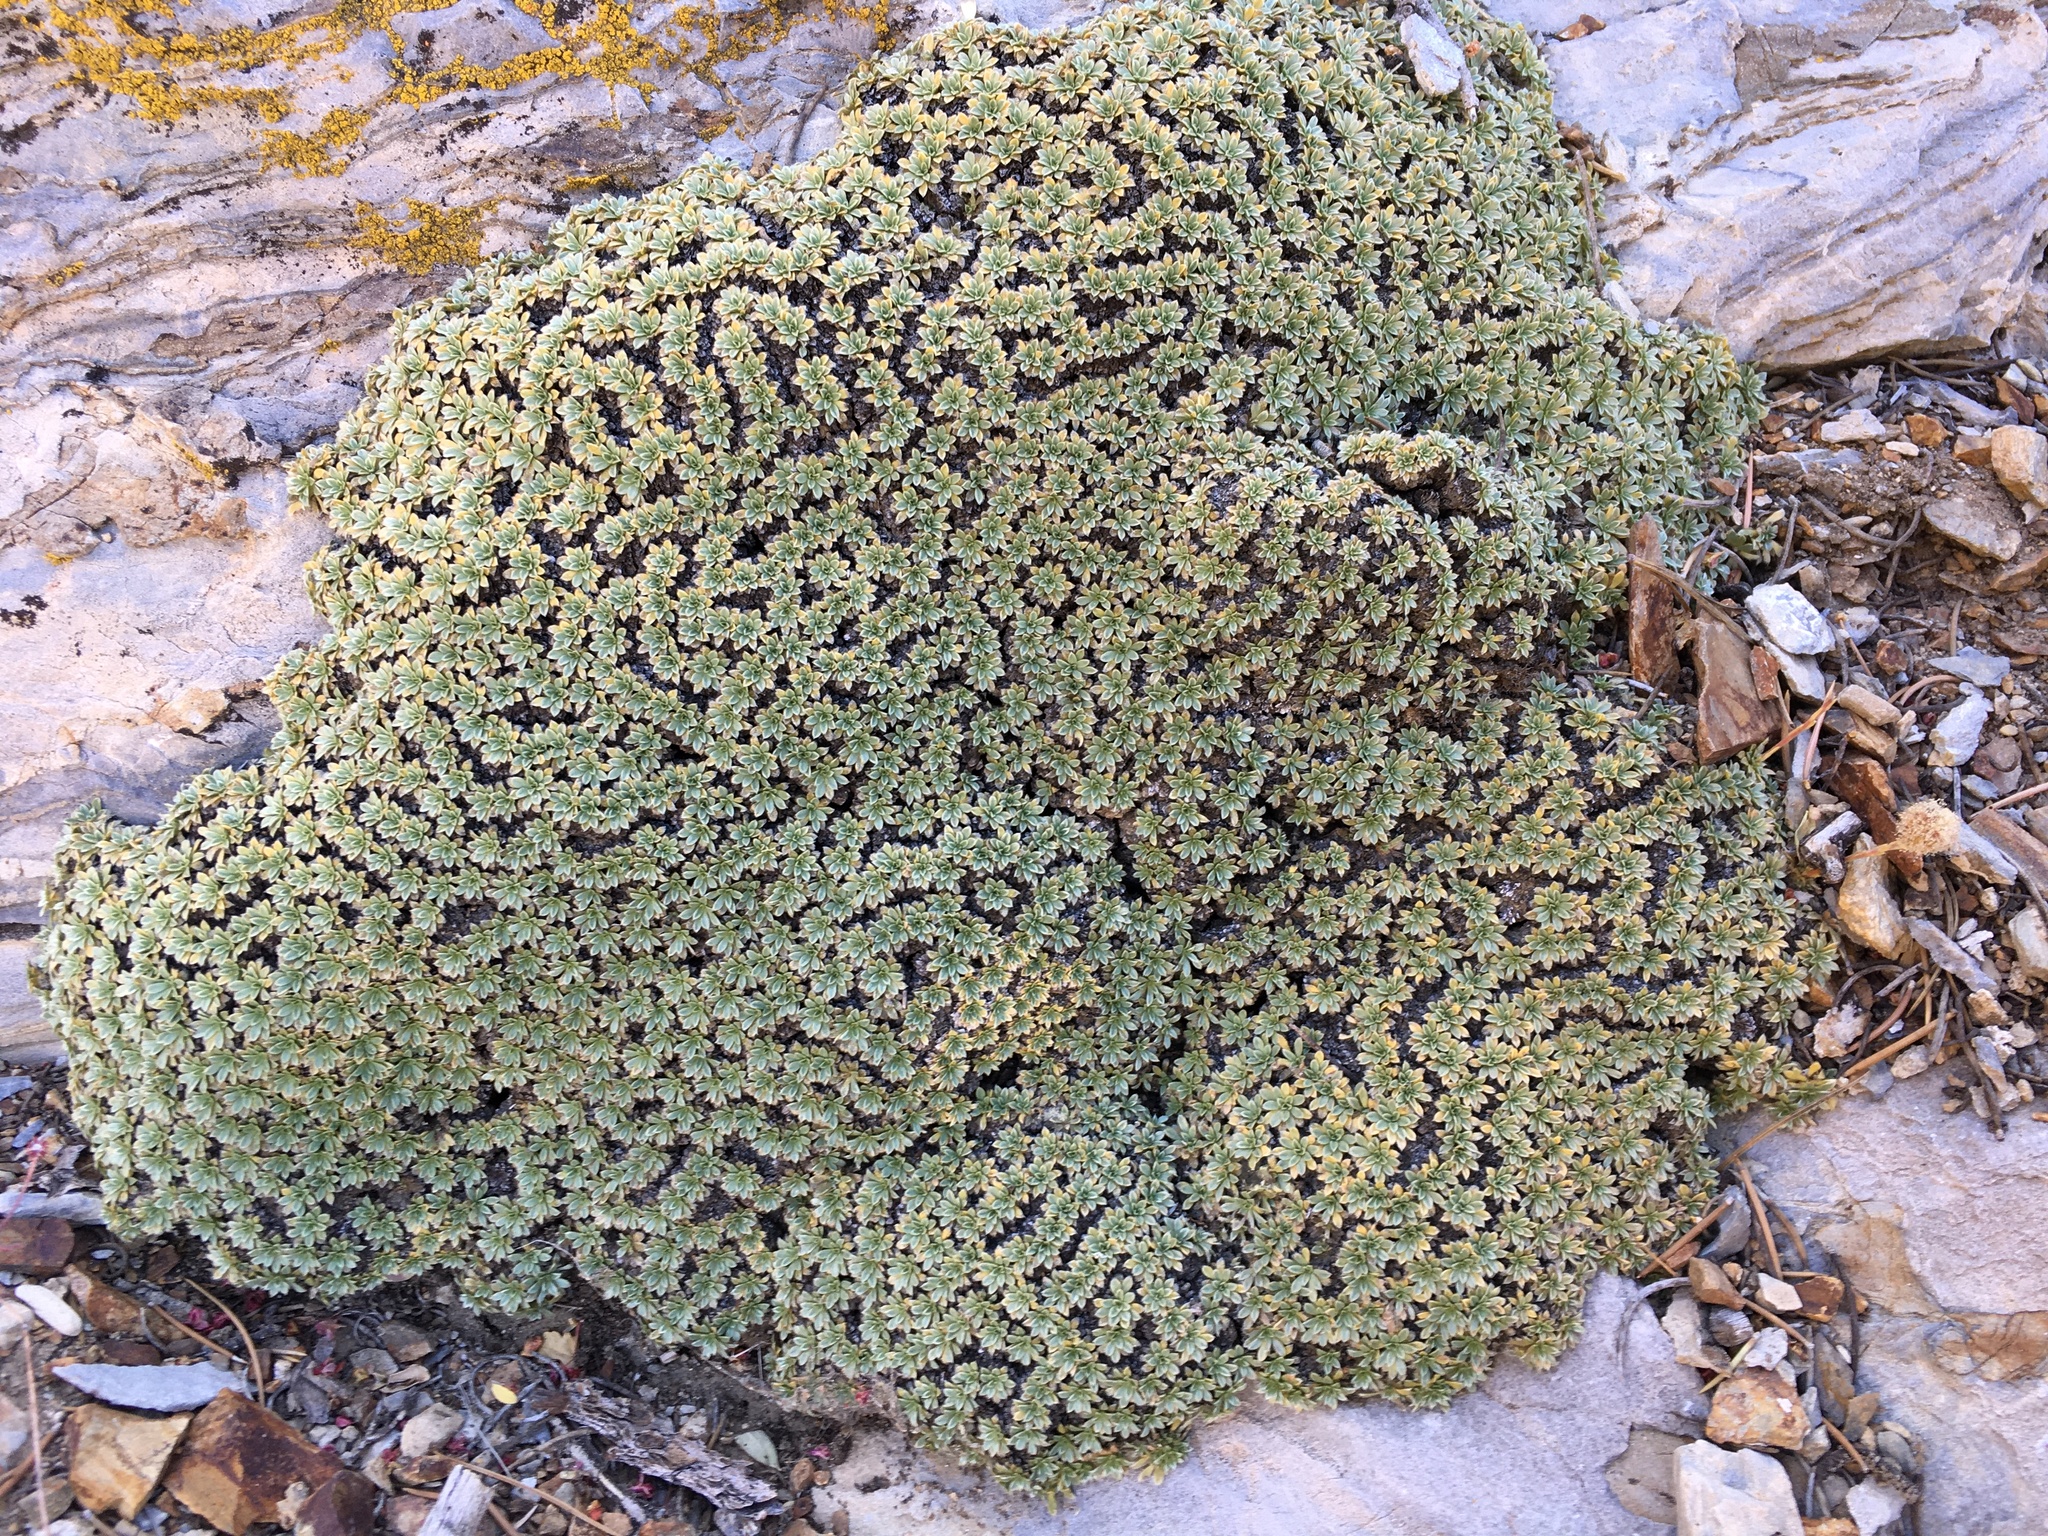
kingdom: Plantae
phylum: Tracheophyta
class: Magnoliopsida
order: Rosales
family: Rosaceae
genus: Petrophytum
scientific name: Petrophytum caespitosum
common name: Mat rockspirea
